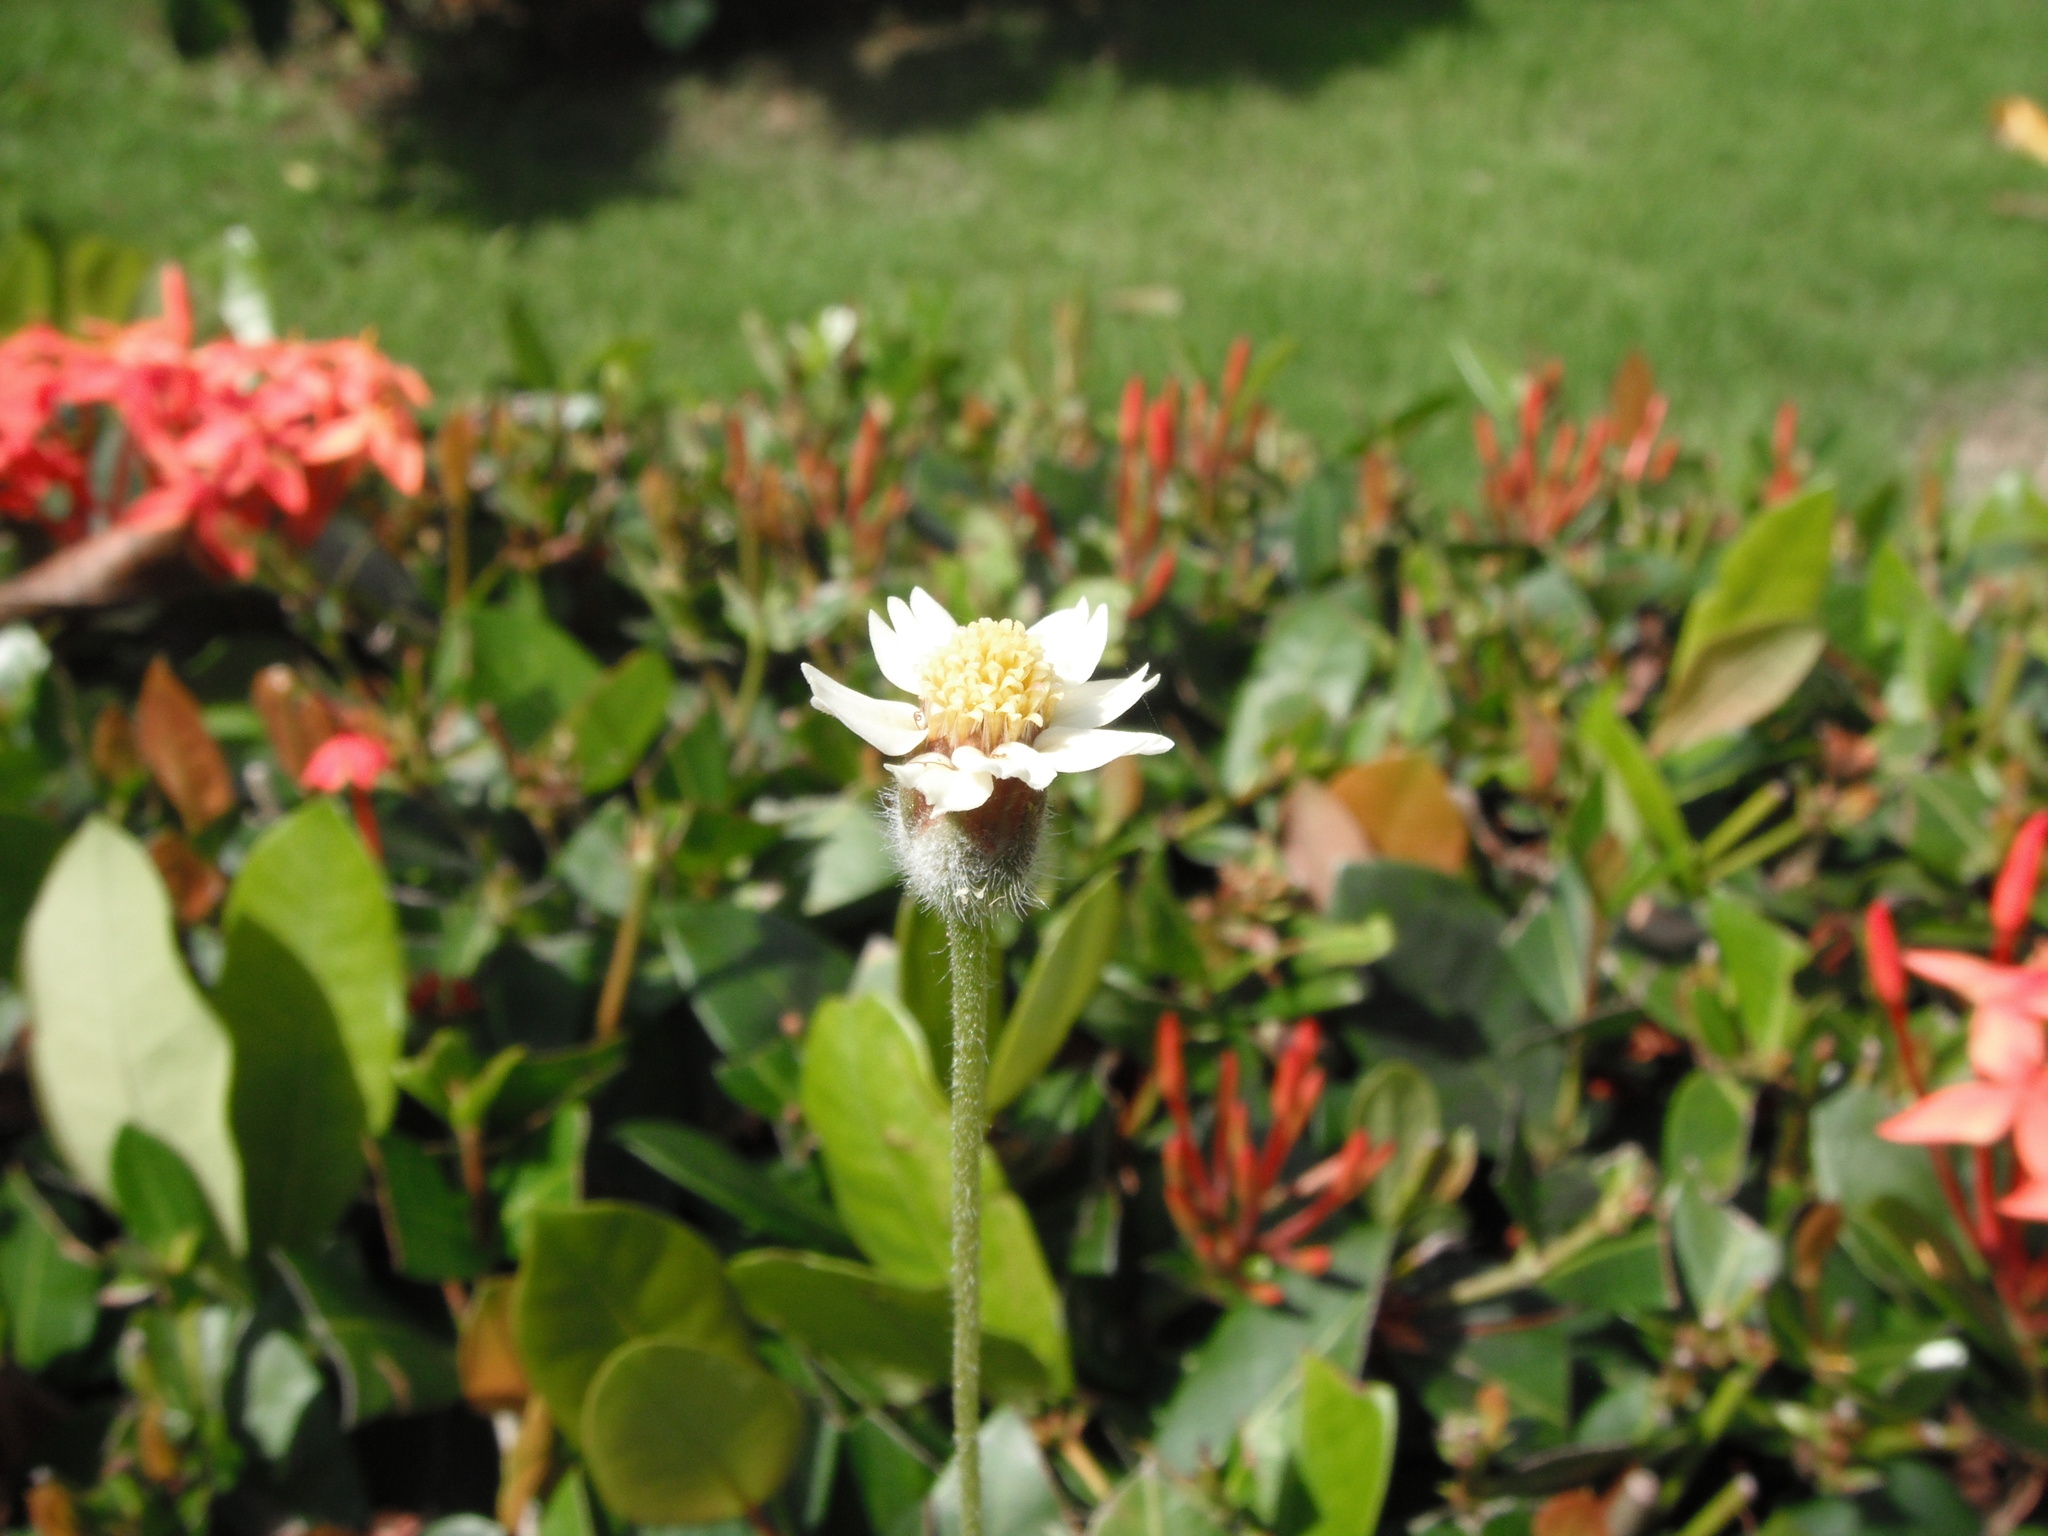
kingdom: Plantae
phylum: Tracheophyta
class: Magnoliopsida
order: Asterales
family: Asteraceae
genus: Tridax
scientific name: Tridax procumbens
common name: Coatbuttons
